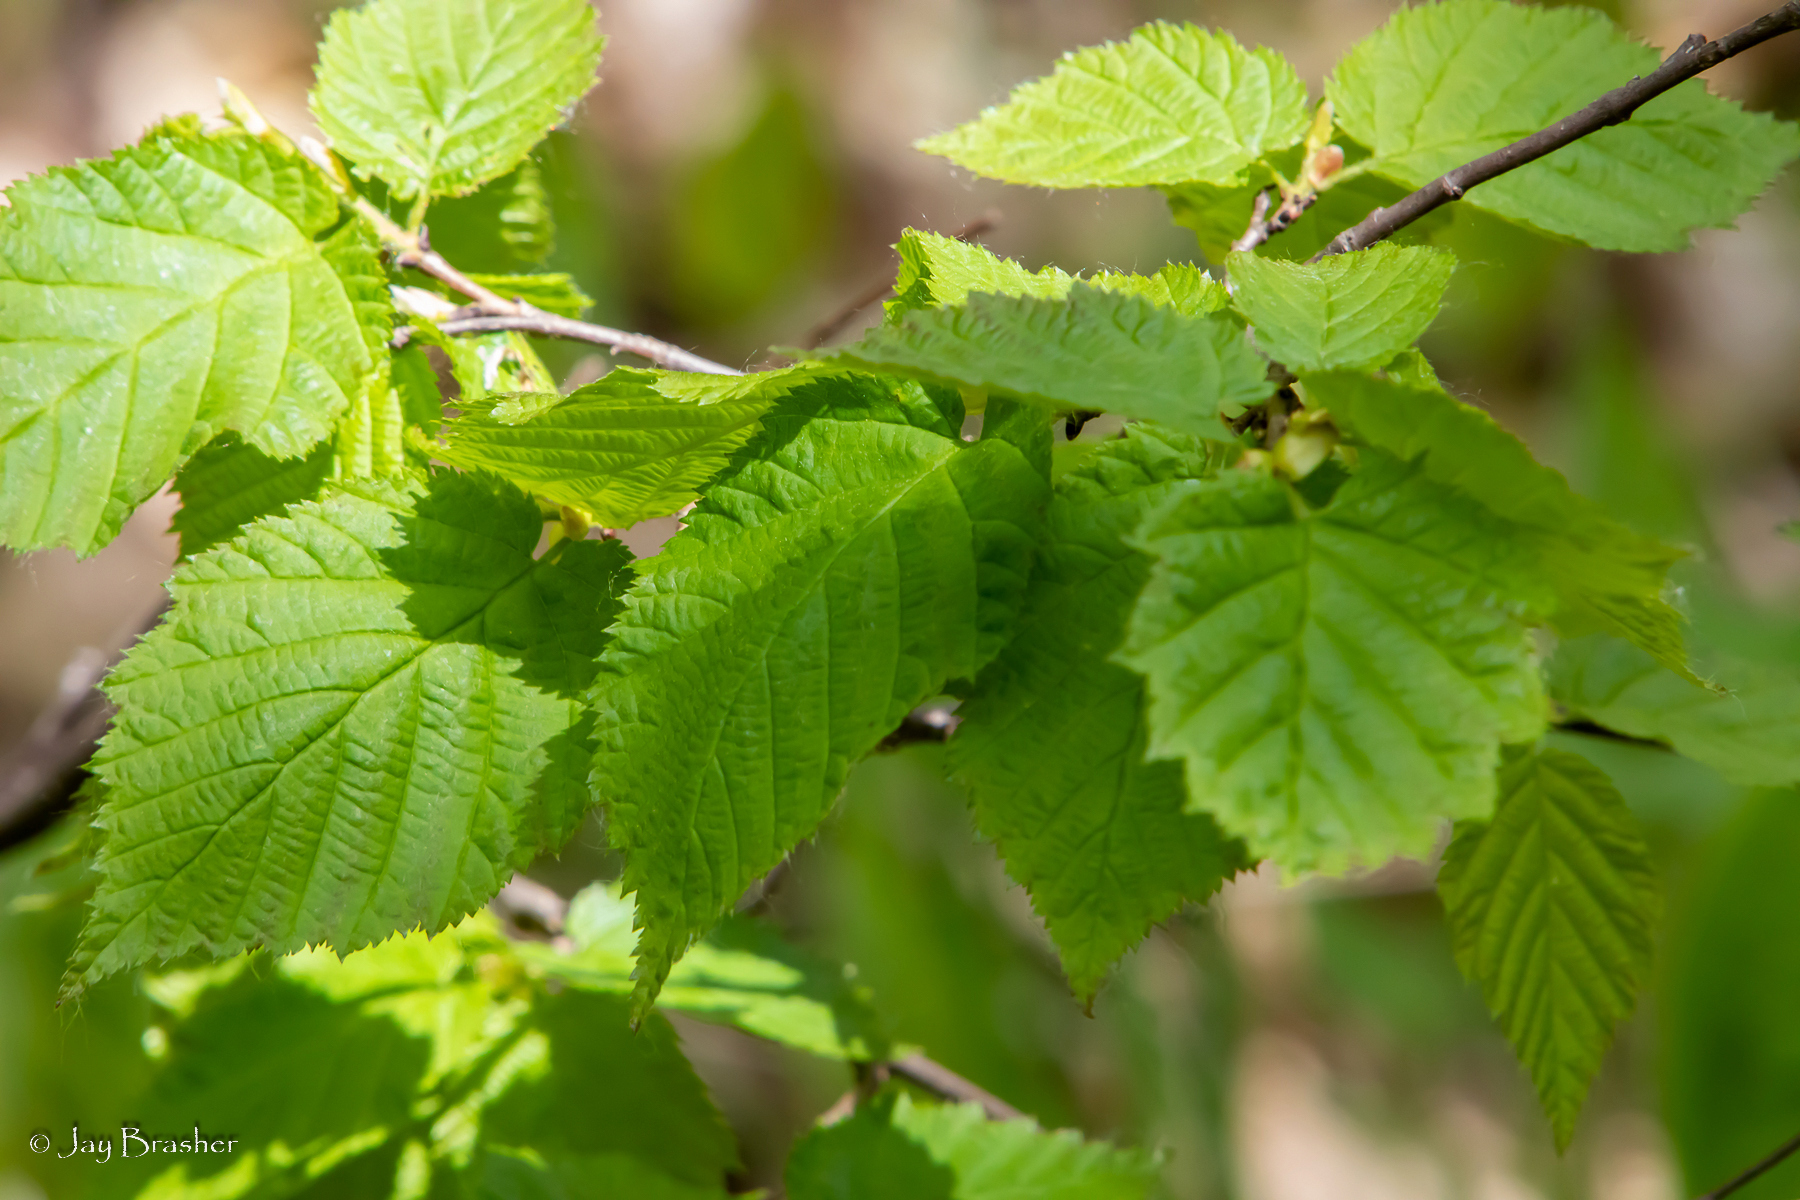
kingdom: Plantae
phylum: Tracheophyta
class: Magnoliopsida
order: Fagales
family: Betulaceae
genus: Corylus
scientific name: Corylus cornuta
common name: Beaked hazel
